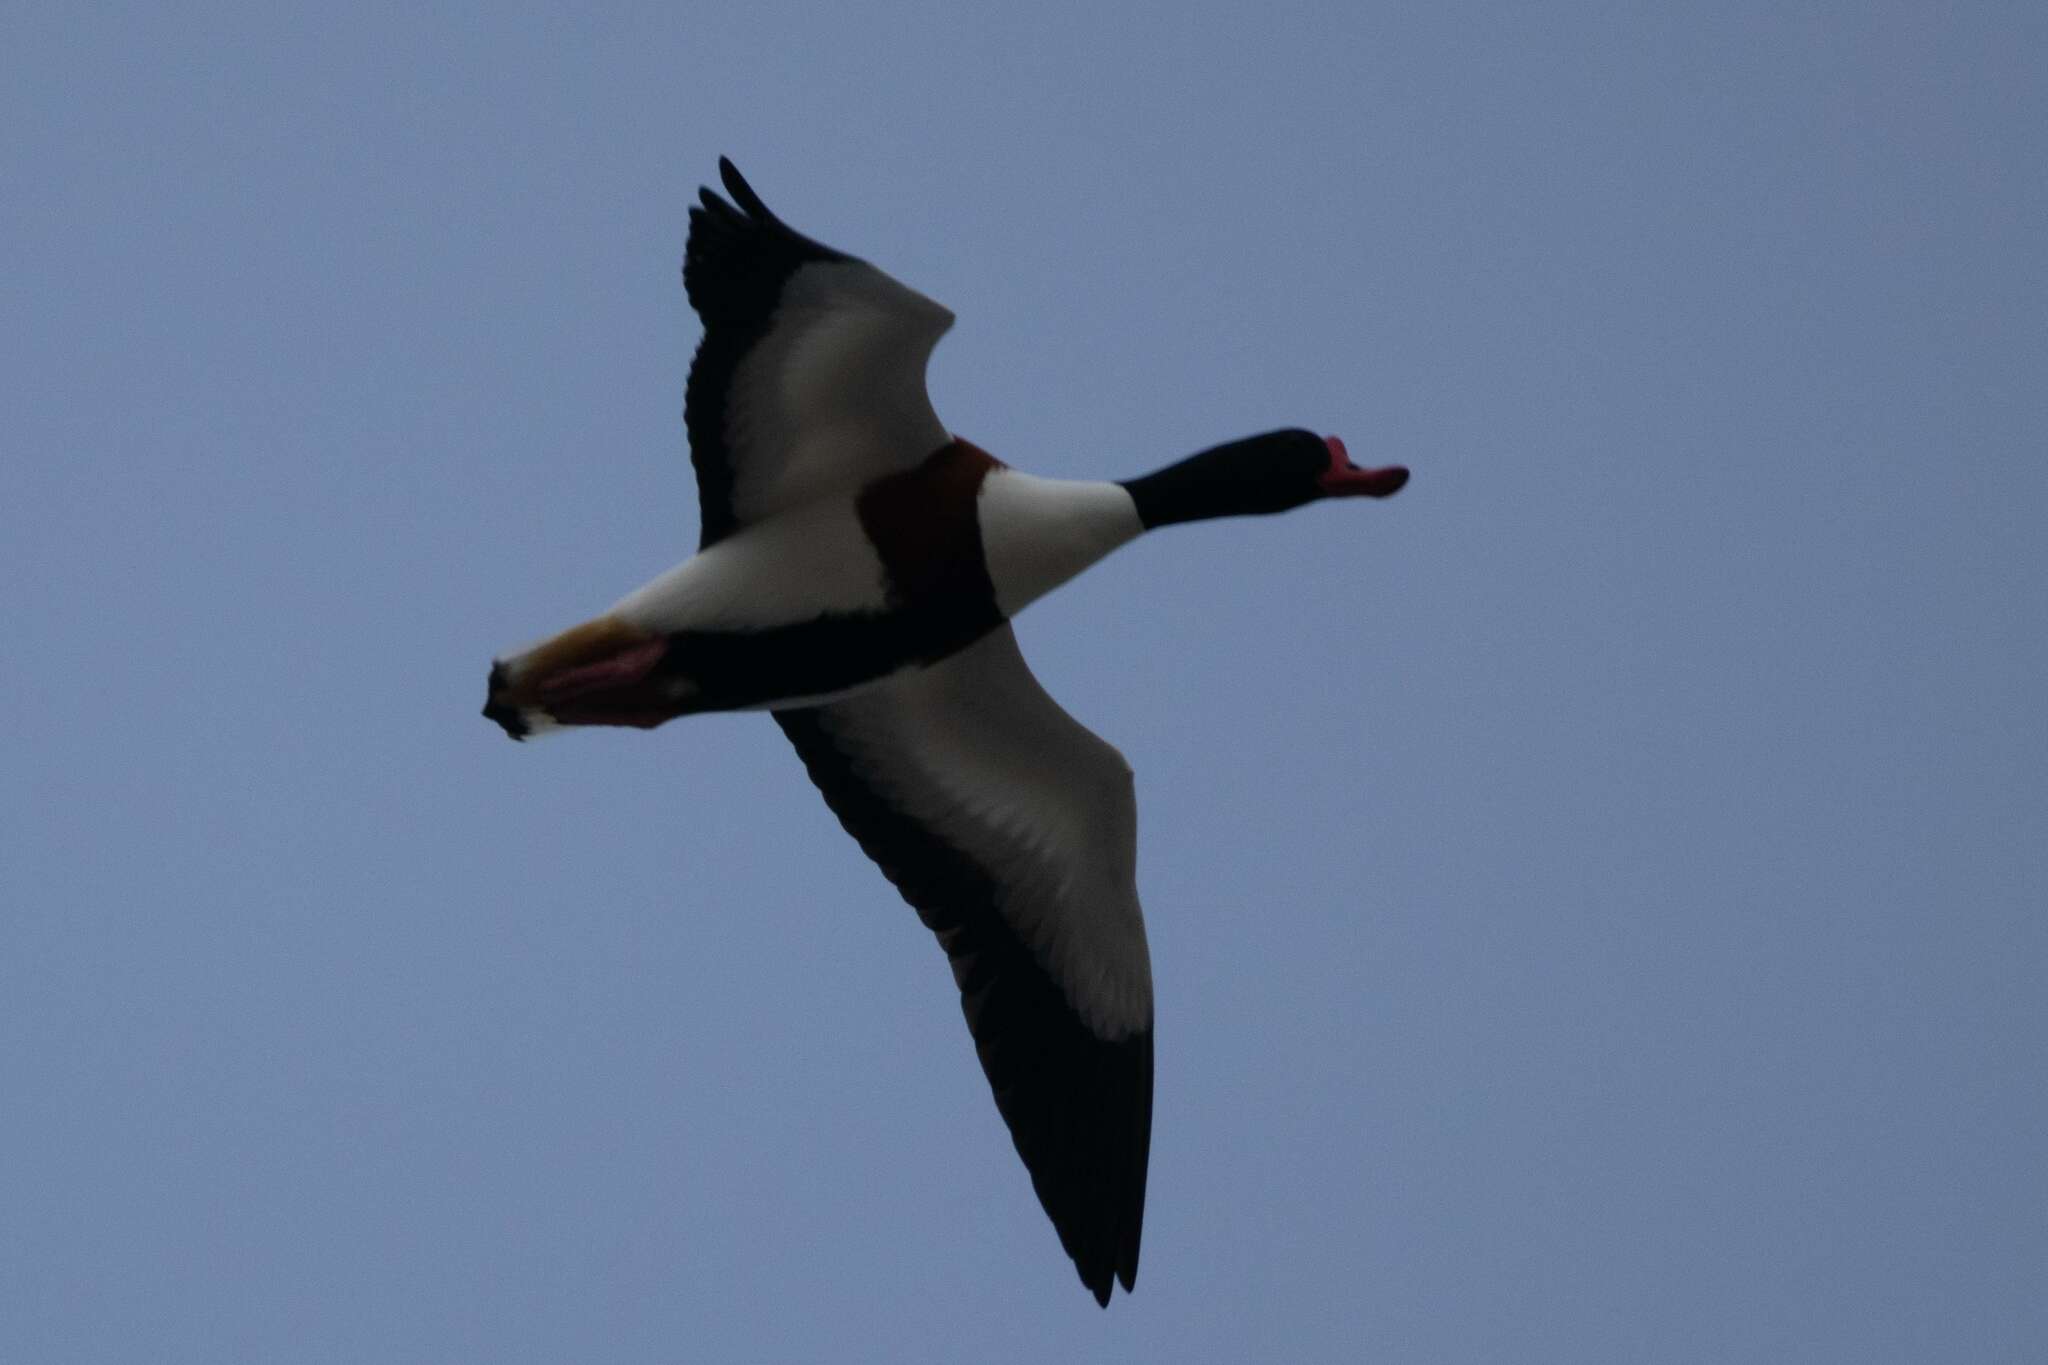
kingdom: Animalia
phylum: Chordata
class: Aves
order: Anseriformes
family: Anatidae
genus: Tadorna
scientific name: Tadorna tadorna
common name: Common shelduck
